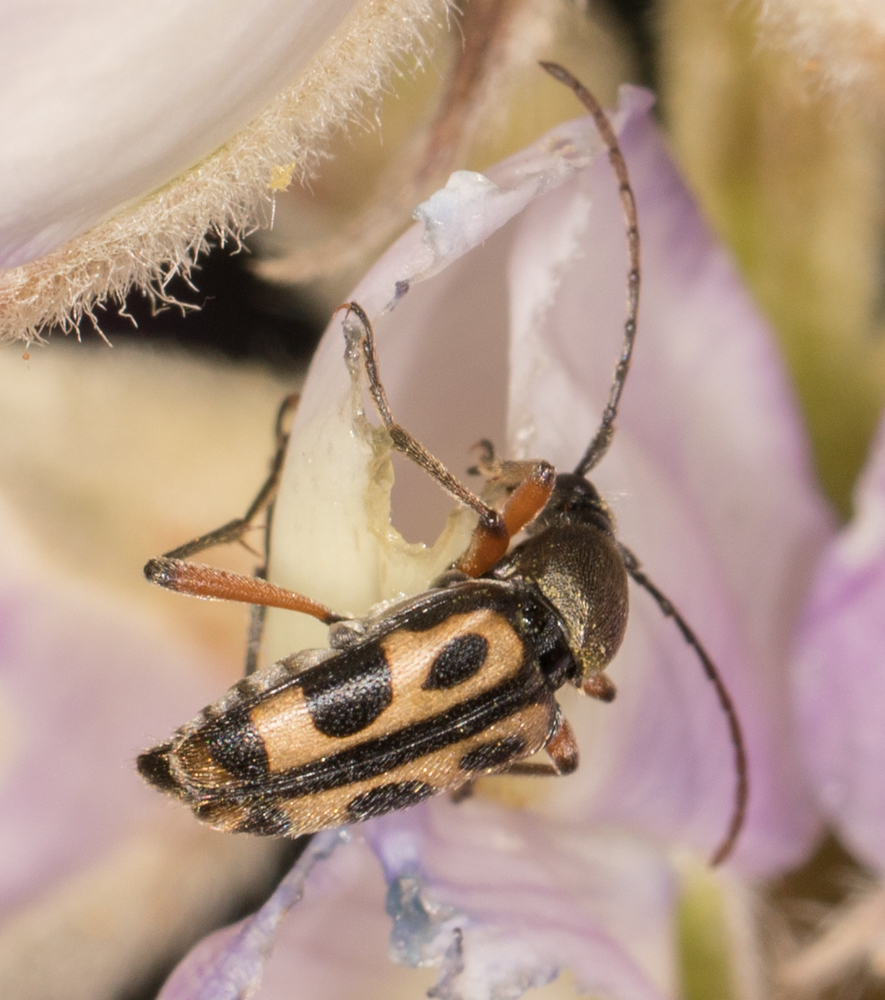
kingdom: Animalia
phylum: Arthropoda
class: Insecta
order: Coleoptera
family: Cerambycidae
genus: Judolia
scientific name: Judolia sexspilota
